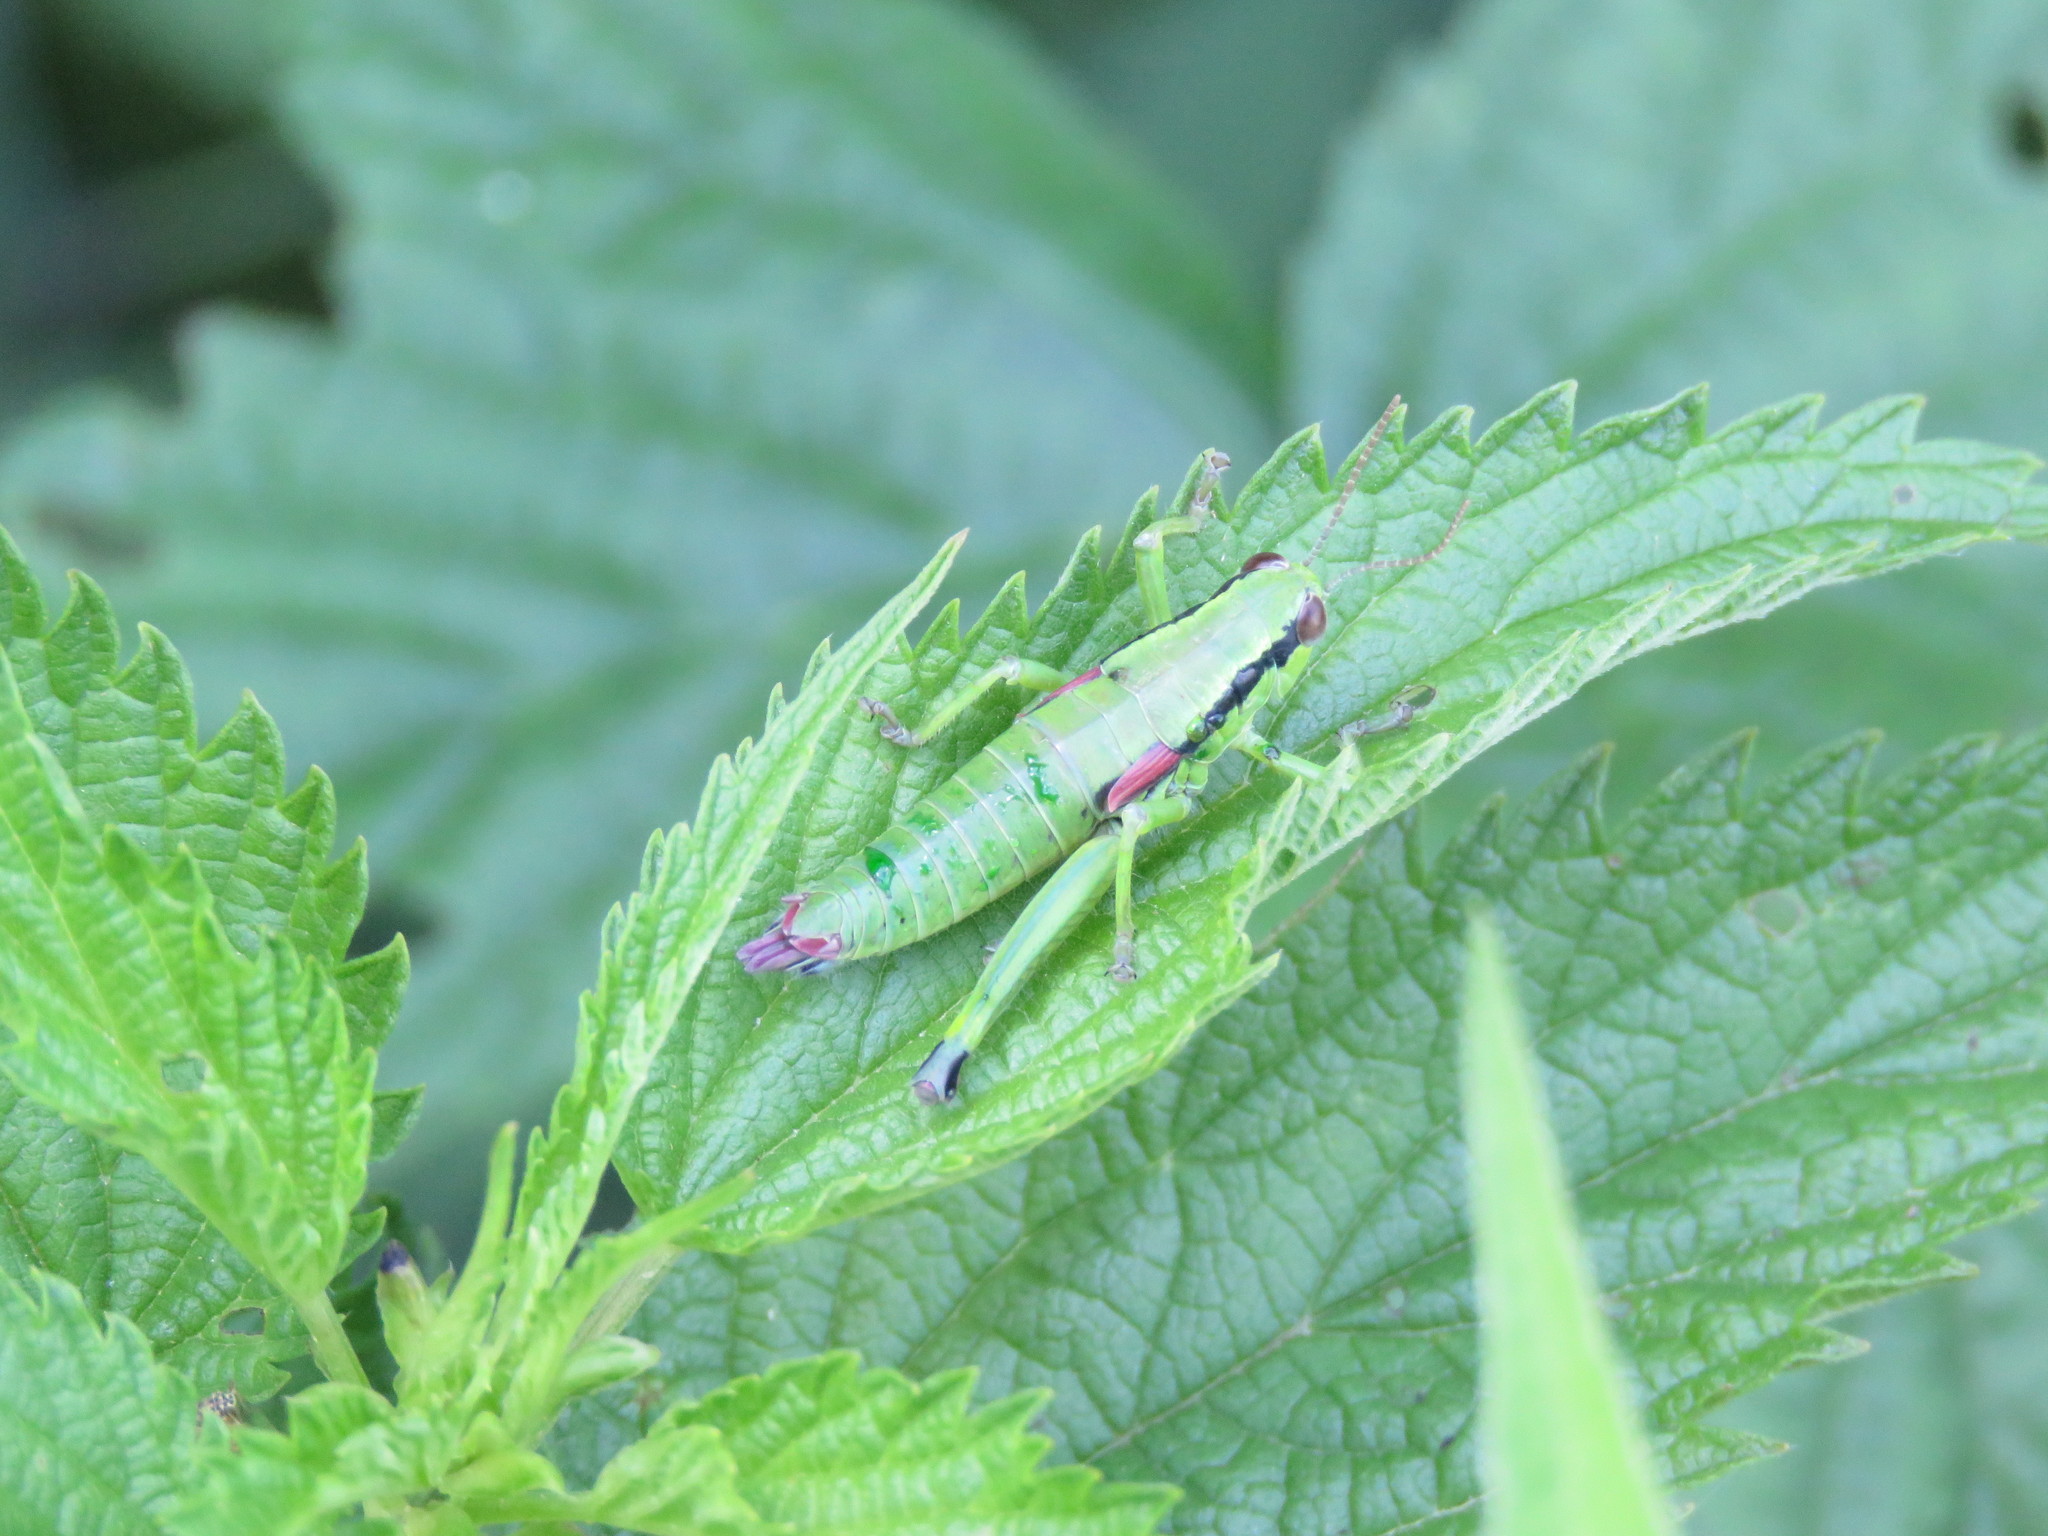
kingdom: Animalia
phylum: Arthropoda
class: Insecta
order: Orthoptera
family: Acrididae
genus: Odontopodisma
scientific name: Odontopodisma schmidtii
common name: Schmidt's mountain grasshopper
